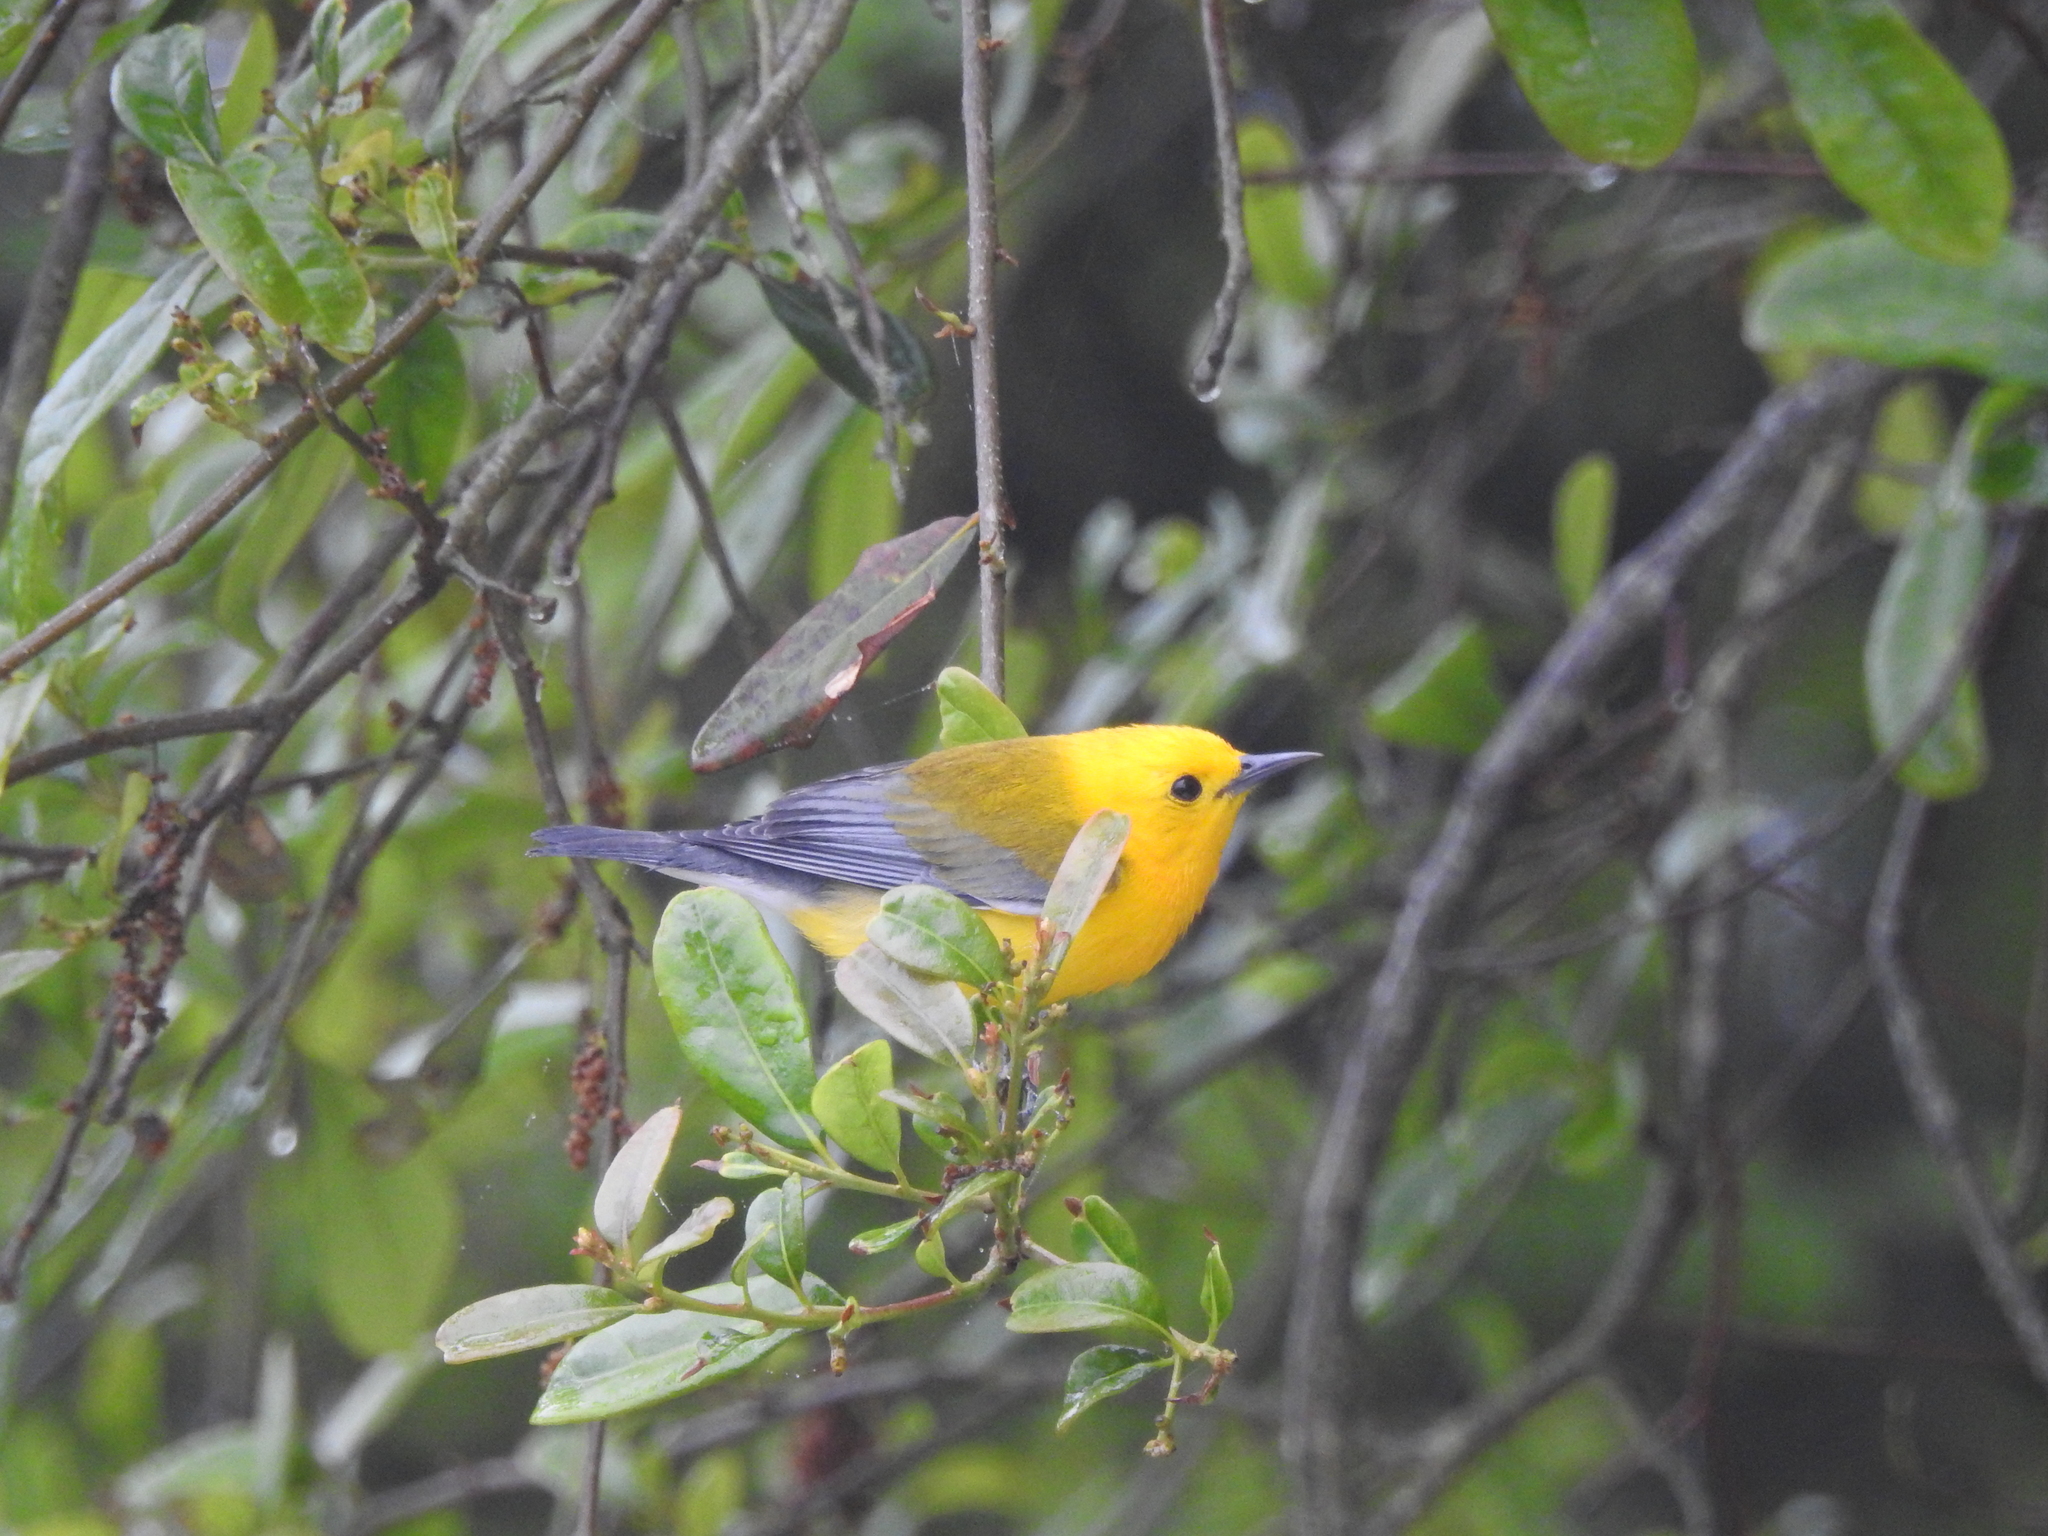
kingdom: Animalia
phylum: Chordata
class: Aves
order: Passeriformes
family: Parulidae
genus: Protonotaria
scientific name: Protonotaria citrea
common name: Prothonotary warbler
